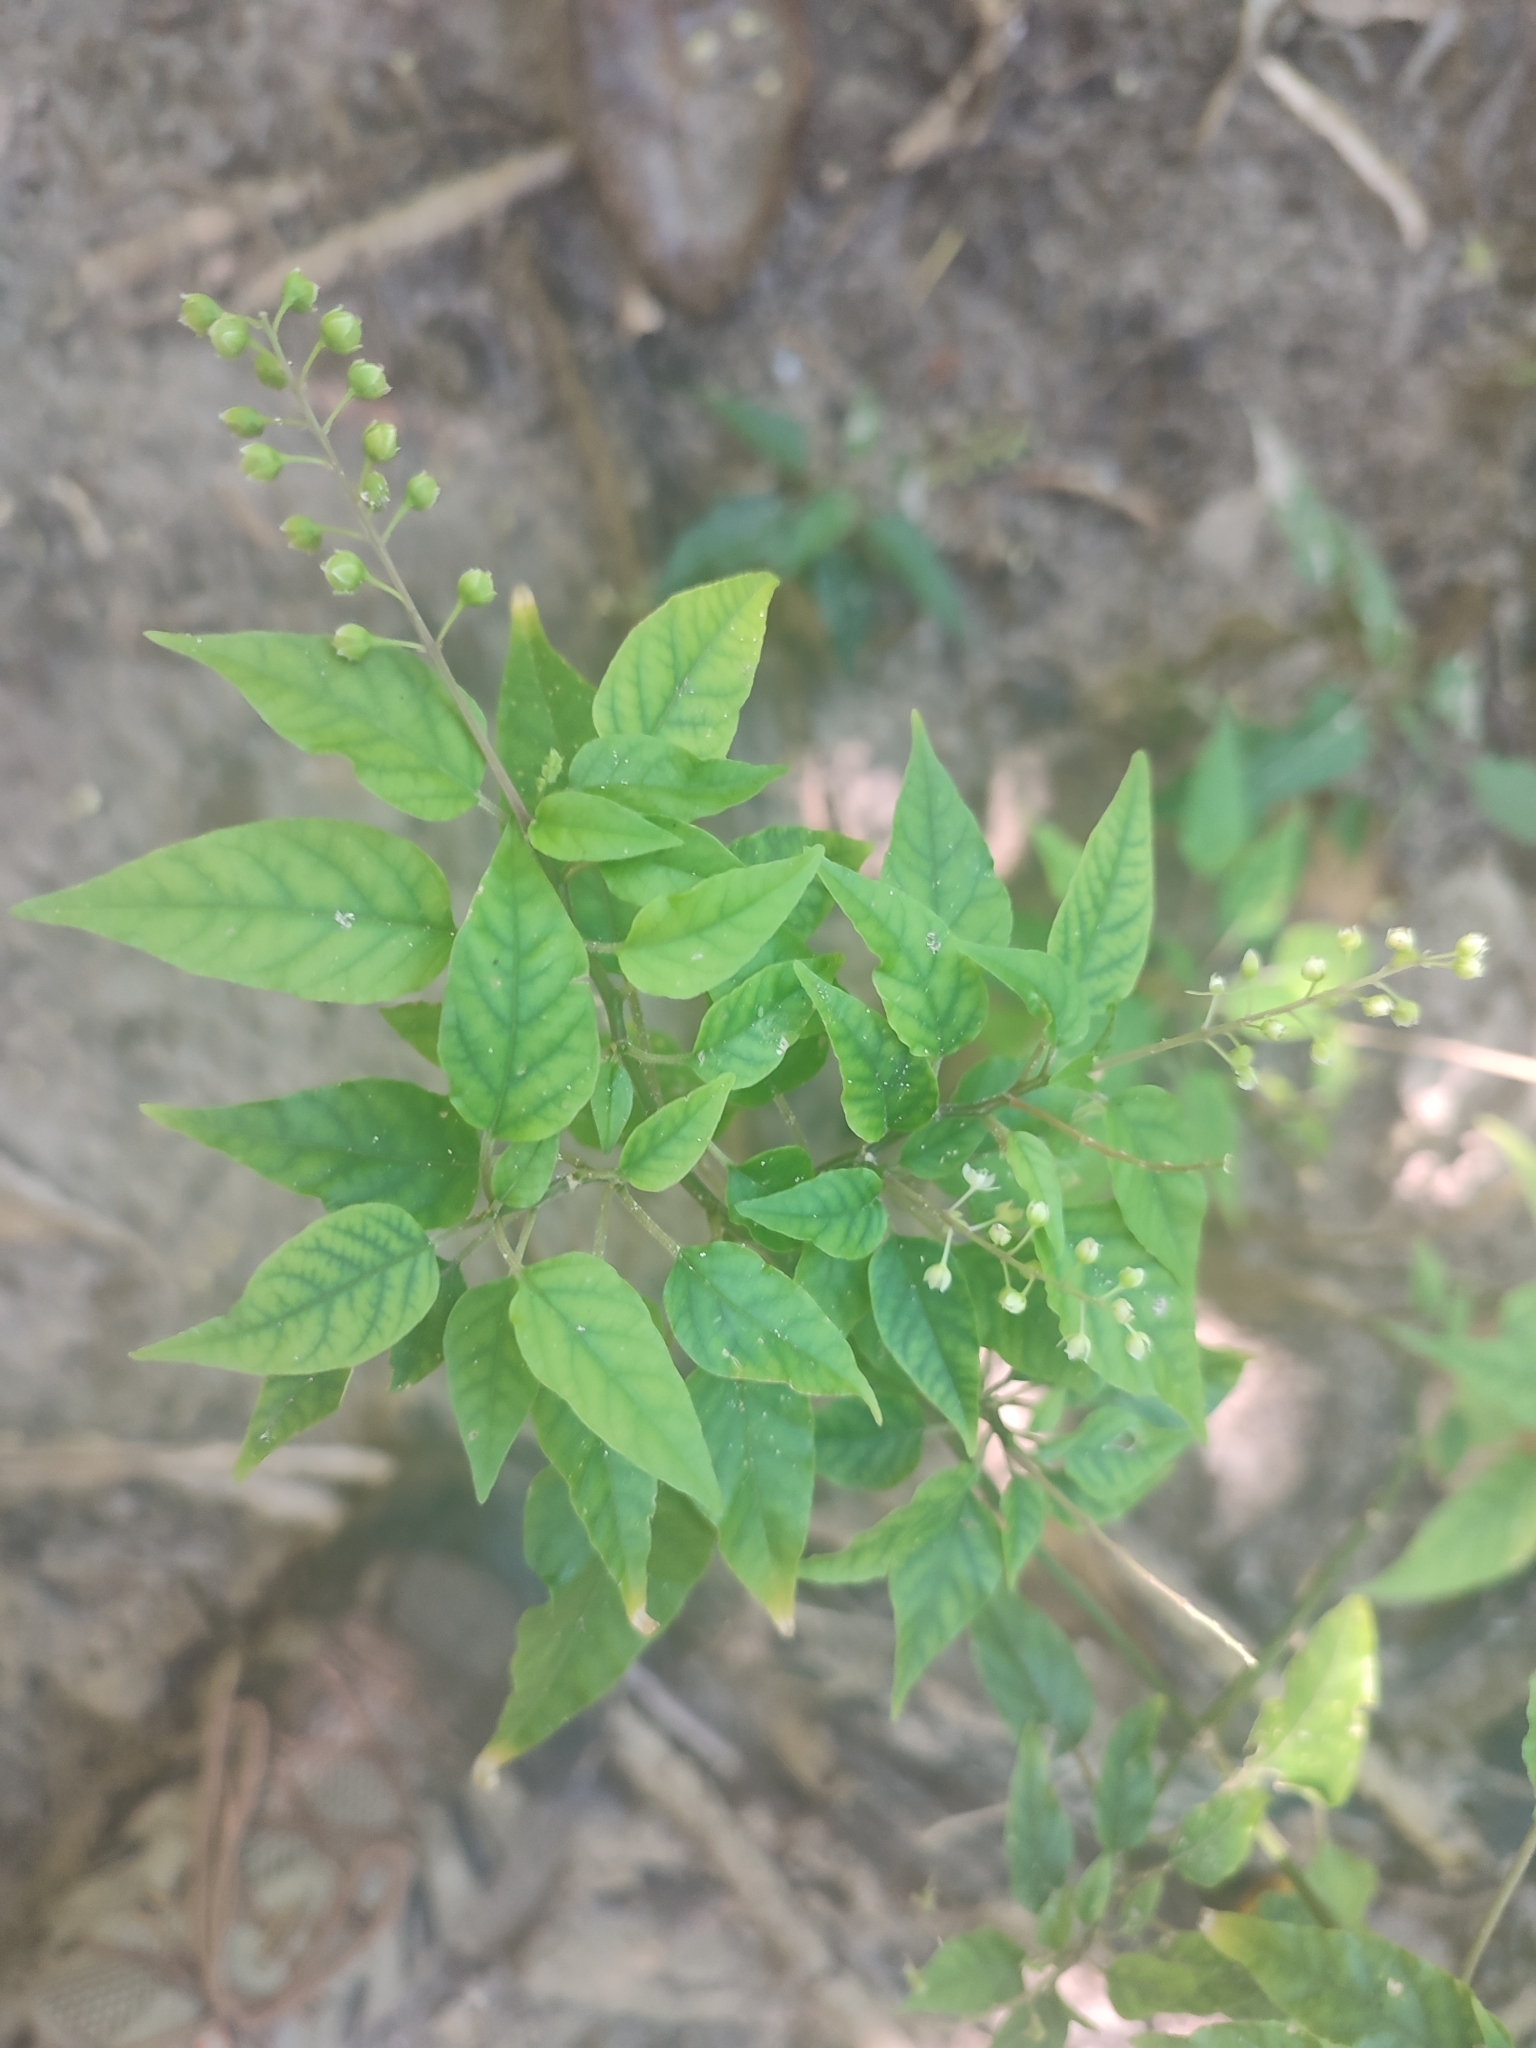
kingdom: Plantae
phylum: Tracheophyta
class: Magnoliopsida
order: Caryophyllales
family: Phytolaccaceae
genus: Rivina
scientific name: Rivina humilis
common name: Rougeplant
